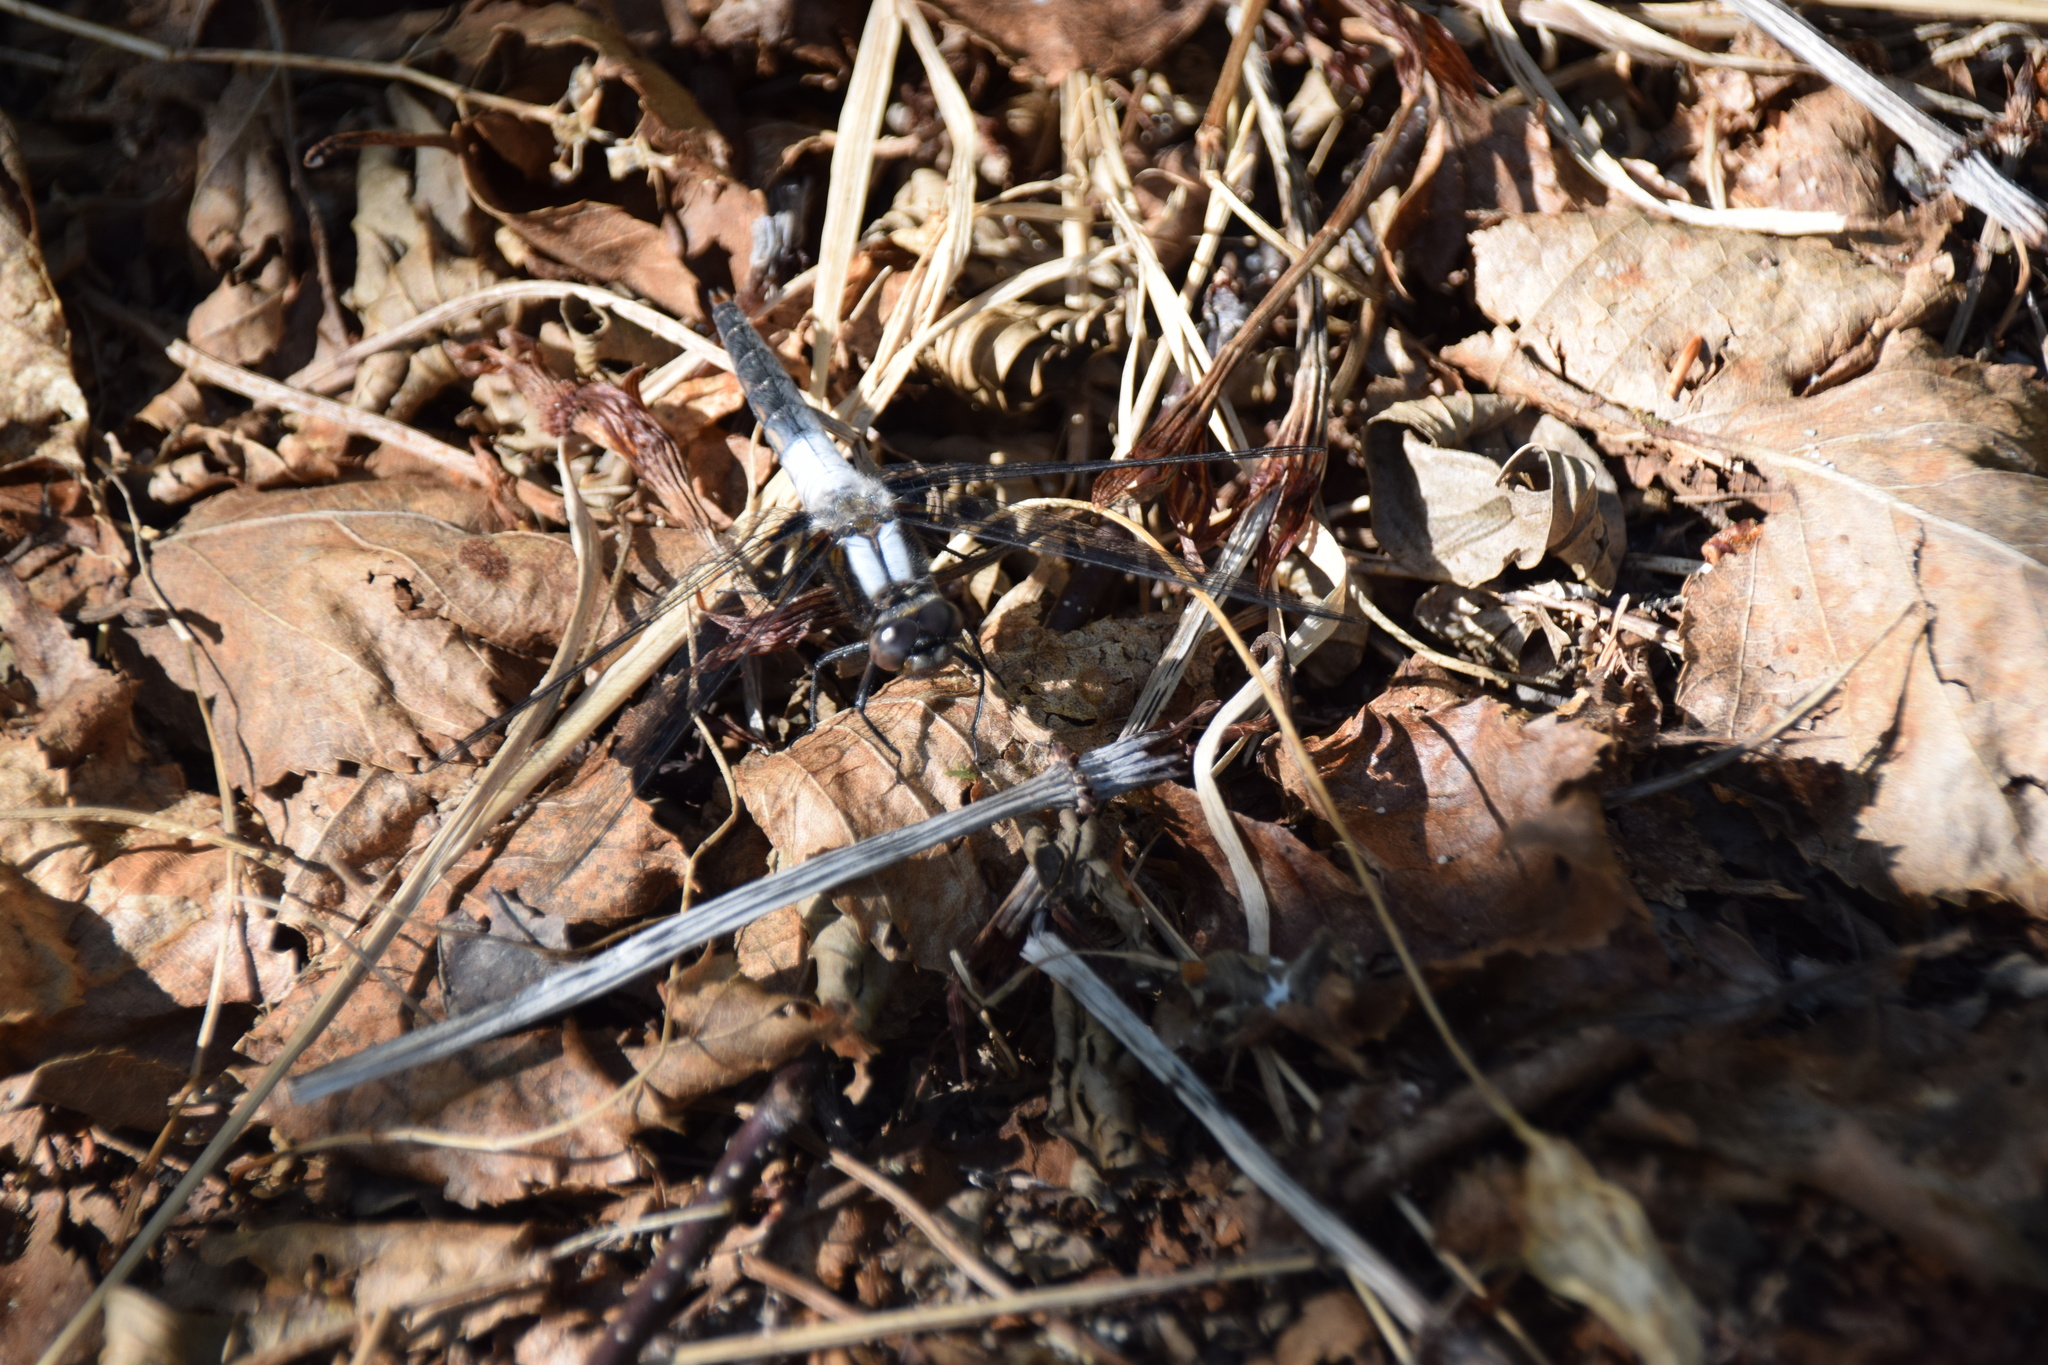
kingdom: Animalia
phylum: Arthropoda
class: Insecta
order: Odonata
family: Libellulidae
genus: Ladona
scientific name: Ladona julia
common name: Chalk-fronted corporal
